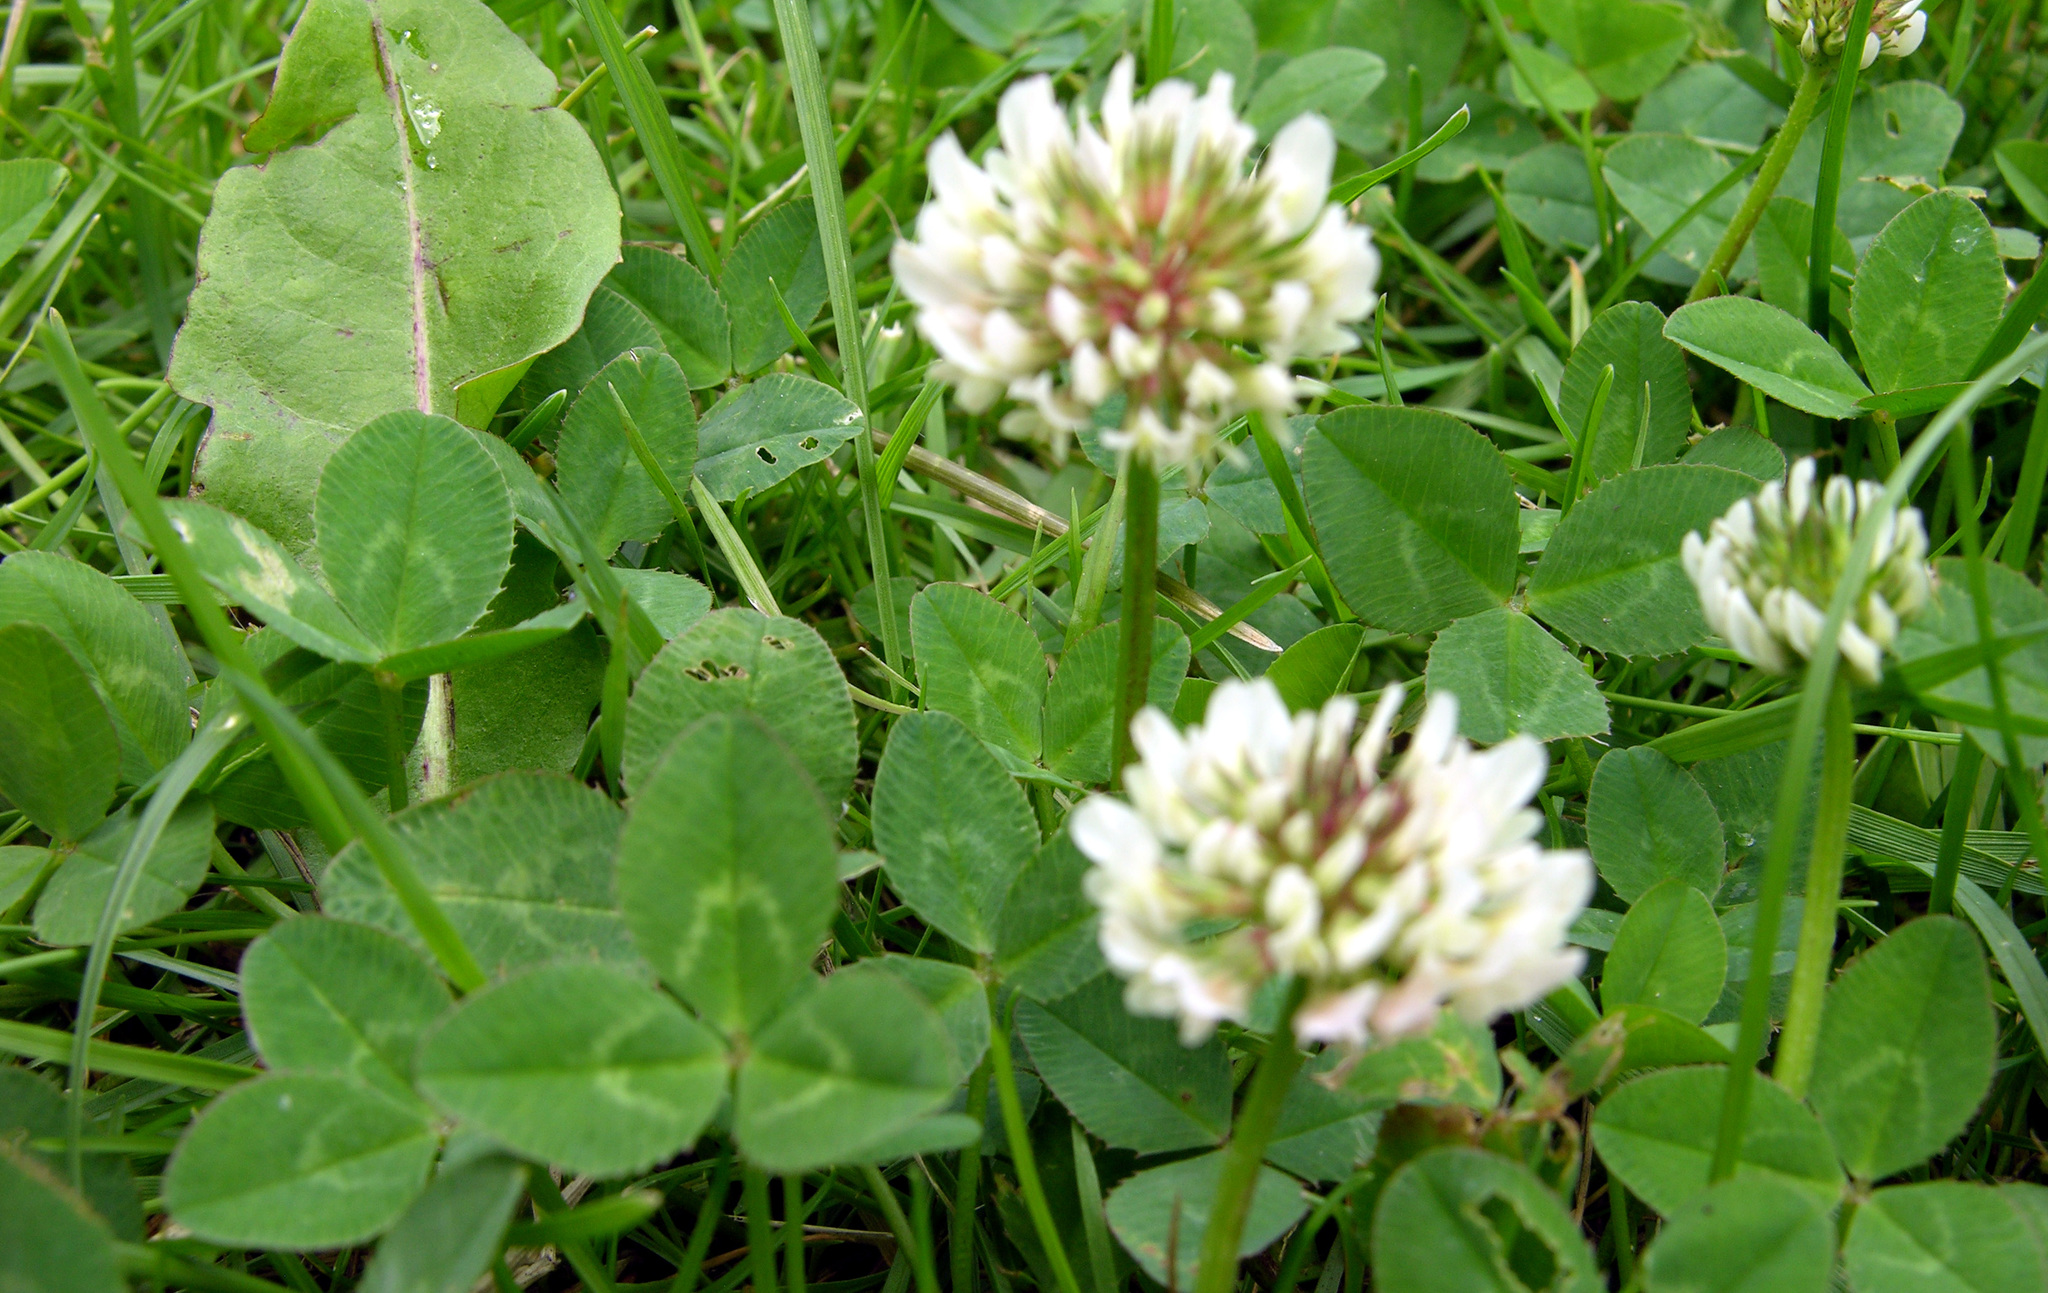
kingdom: Plantae
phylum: Tracheophyta
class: Magnoliopsida
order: Fabales
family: Fabaceae
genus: Trifolium
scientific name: Trifolium repens
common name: White clover
